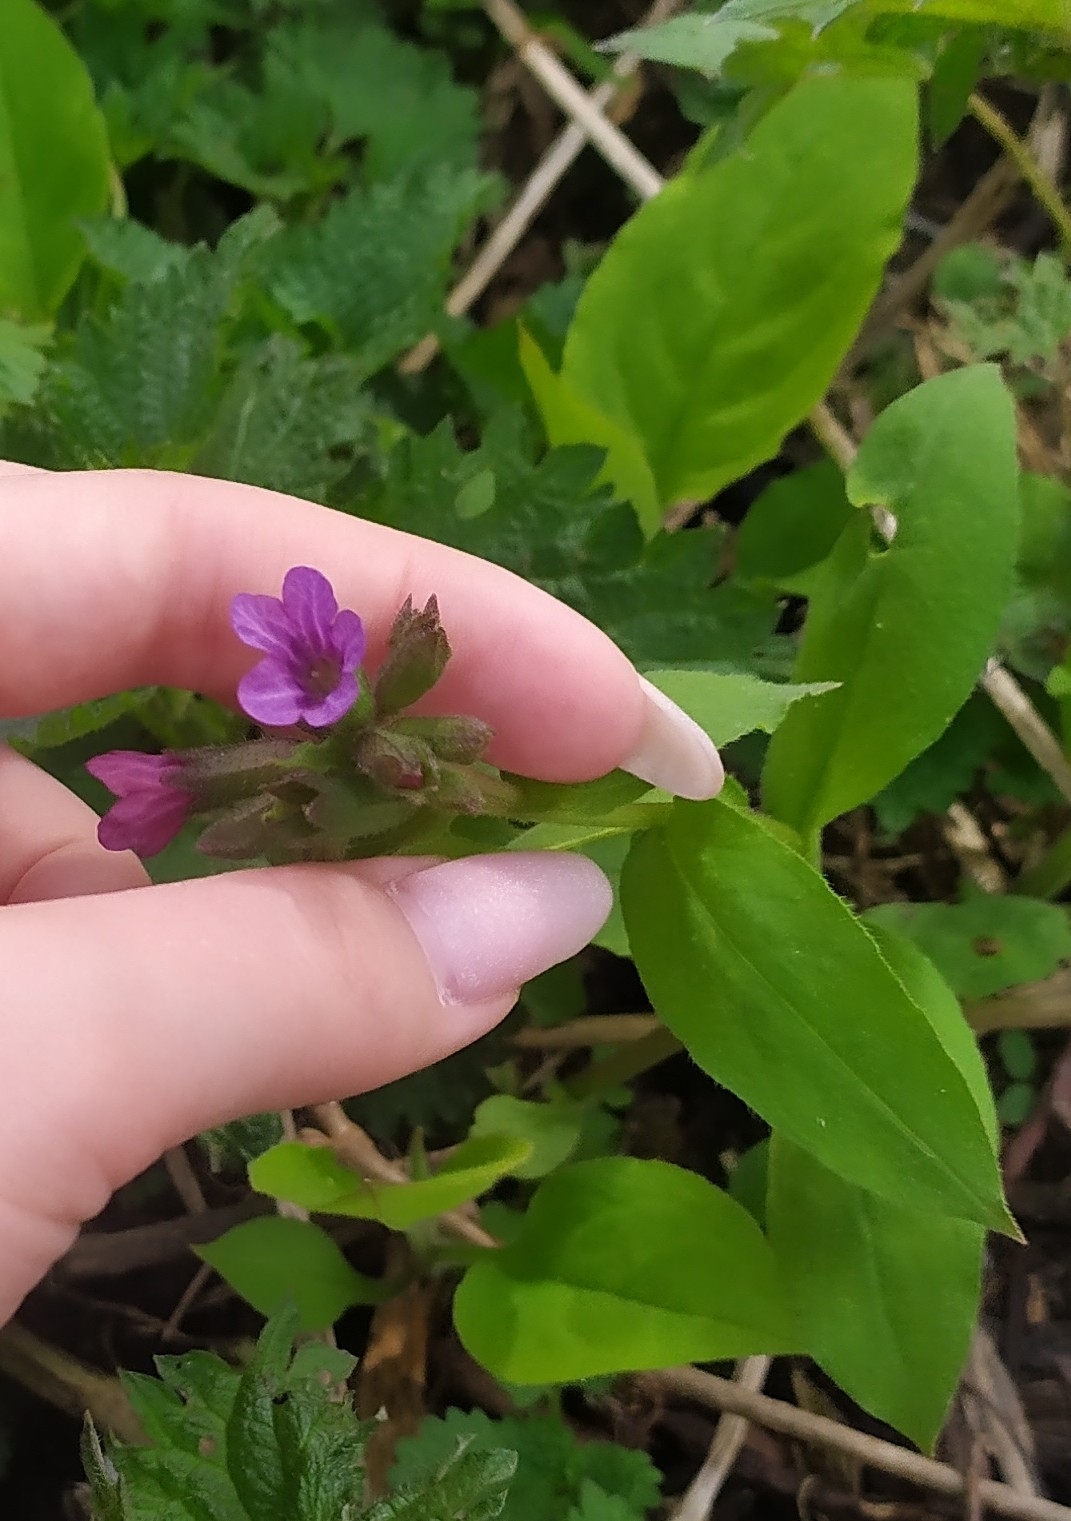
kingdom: Plantae
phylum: Tracheophyta
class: Magnoliopsida
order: Boraginales
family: Boraginaceae
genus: Pulmonaria
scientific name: Pulmonaria obscura
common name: Suffolk lungwort
